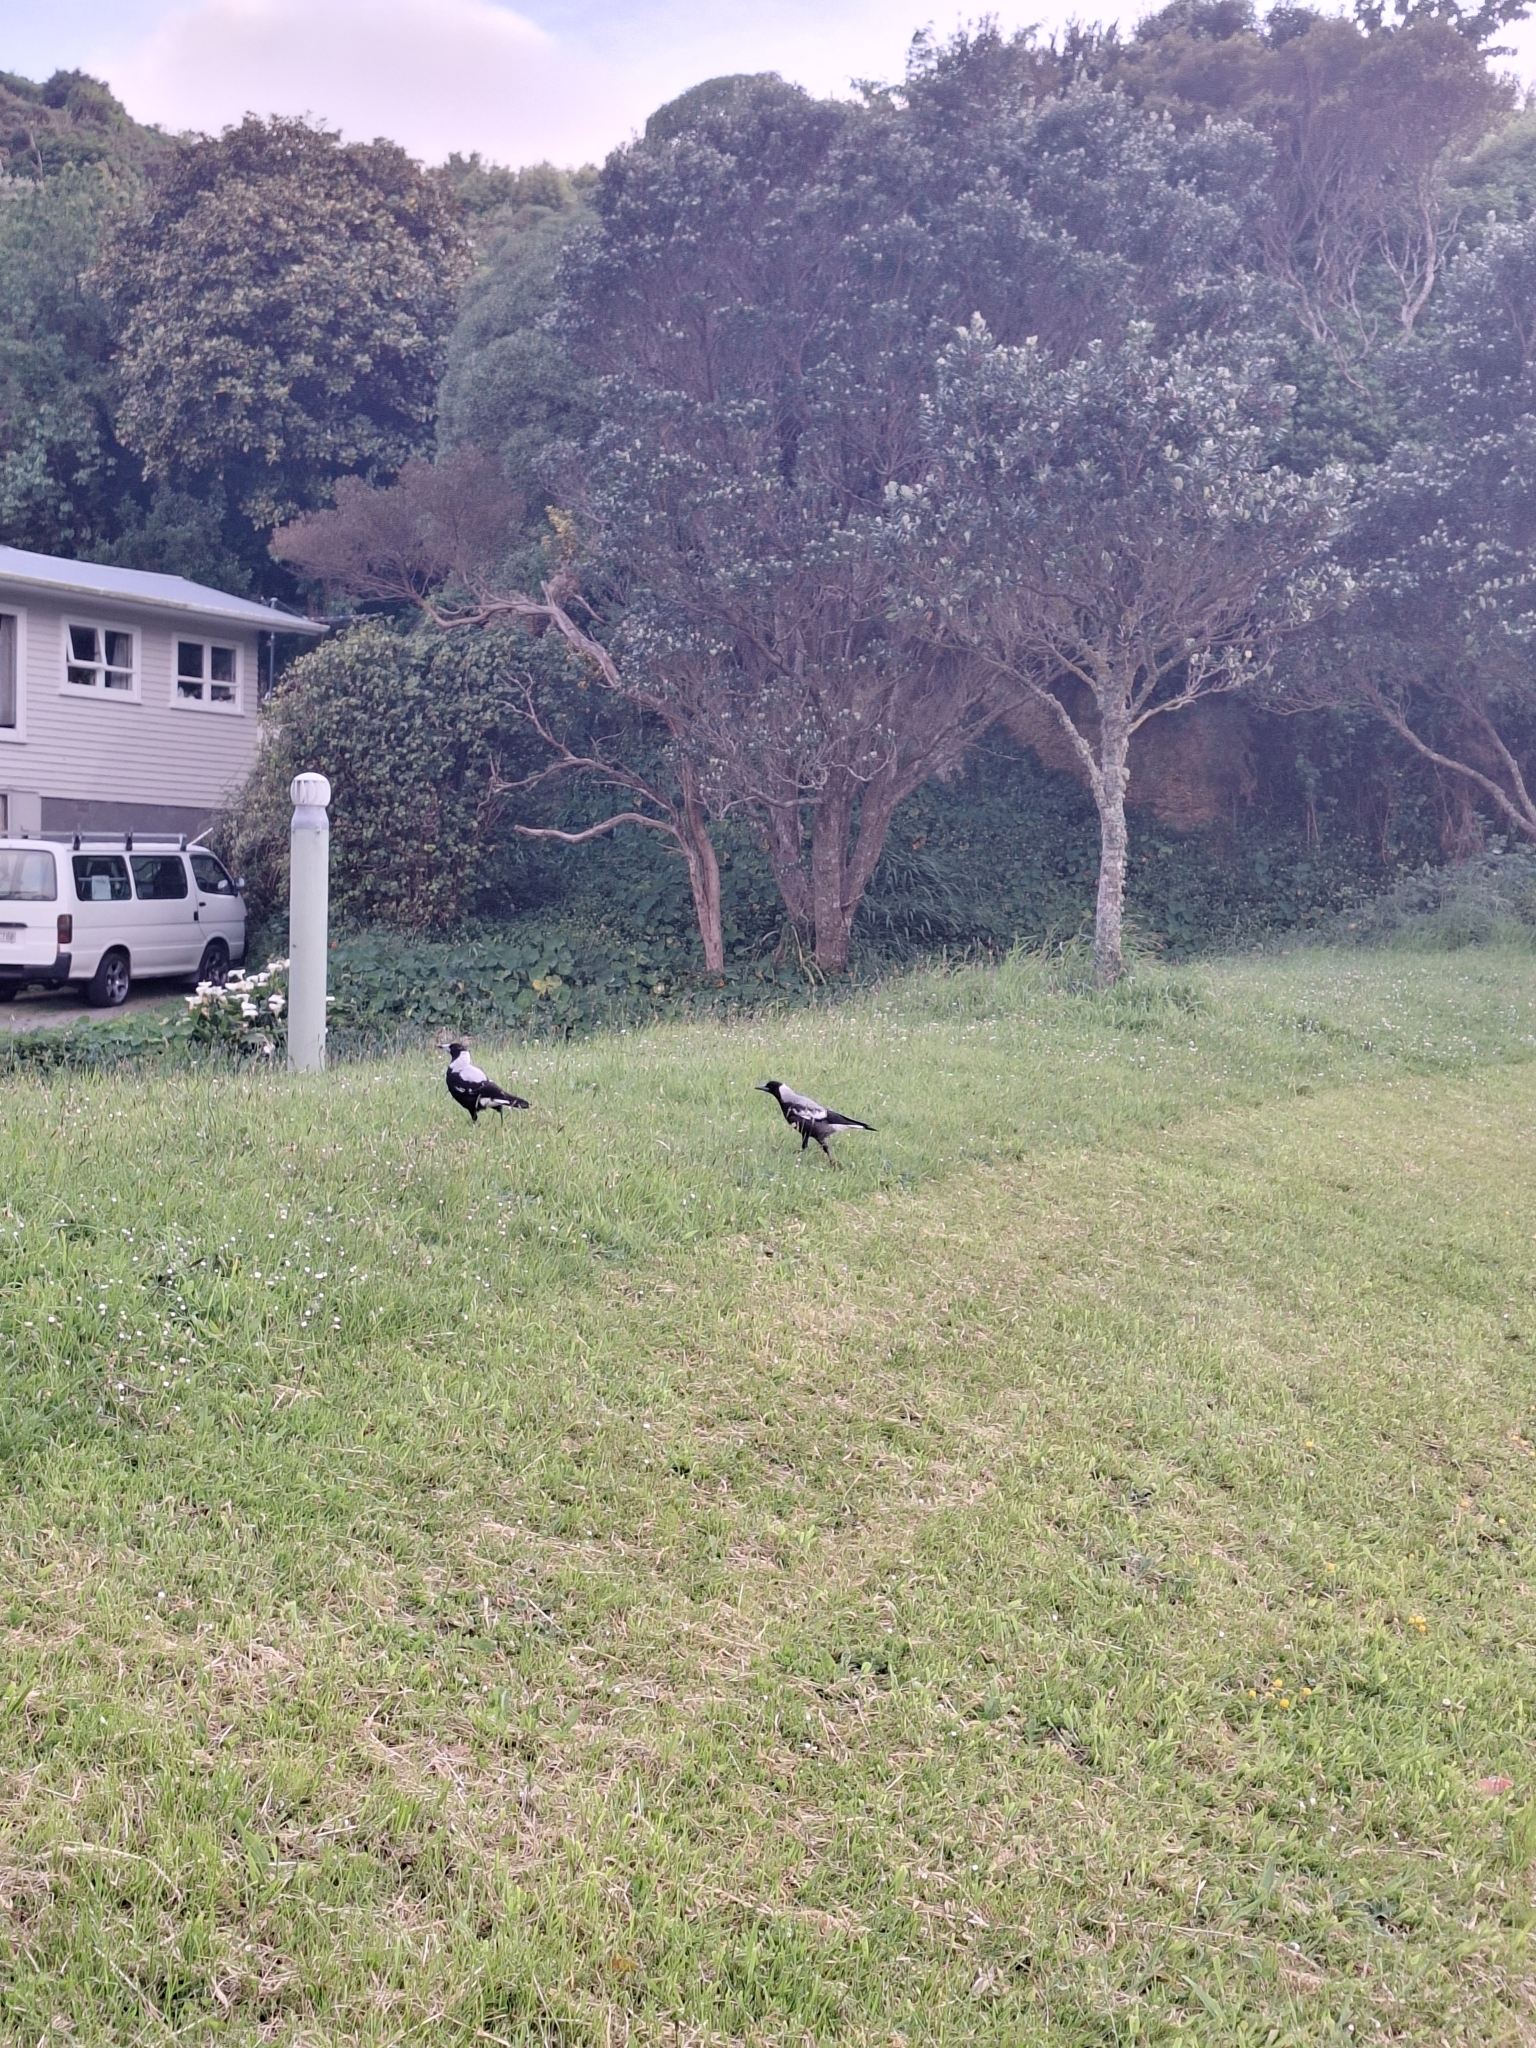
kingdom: Animalia
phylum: Chordata
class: Aves
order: Passeriformes
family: Cracticidae
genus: Gymnorhina
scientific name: Gymnorhina tibicen
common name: Australian magpie
